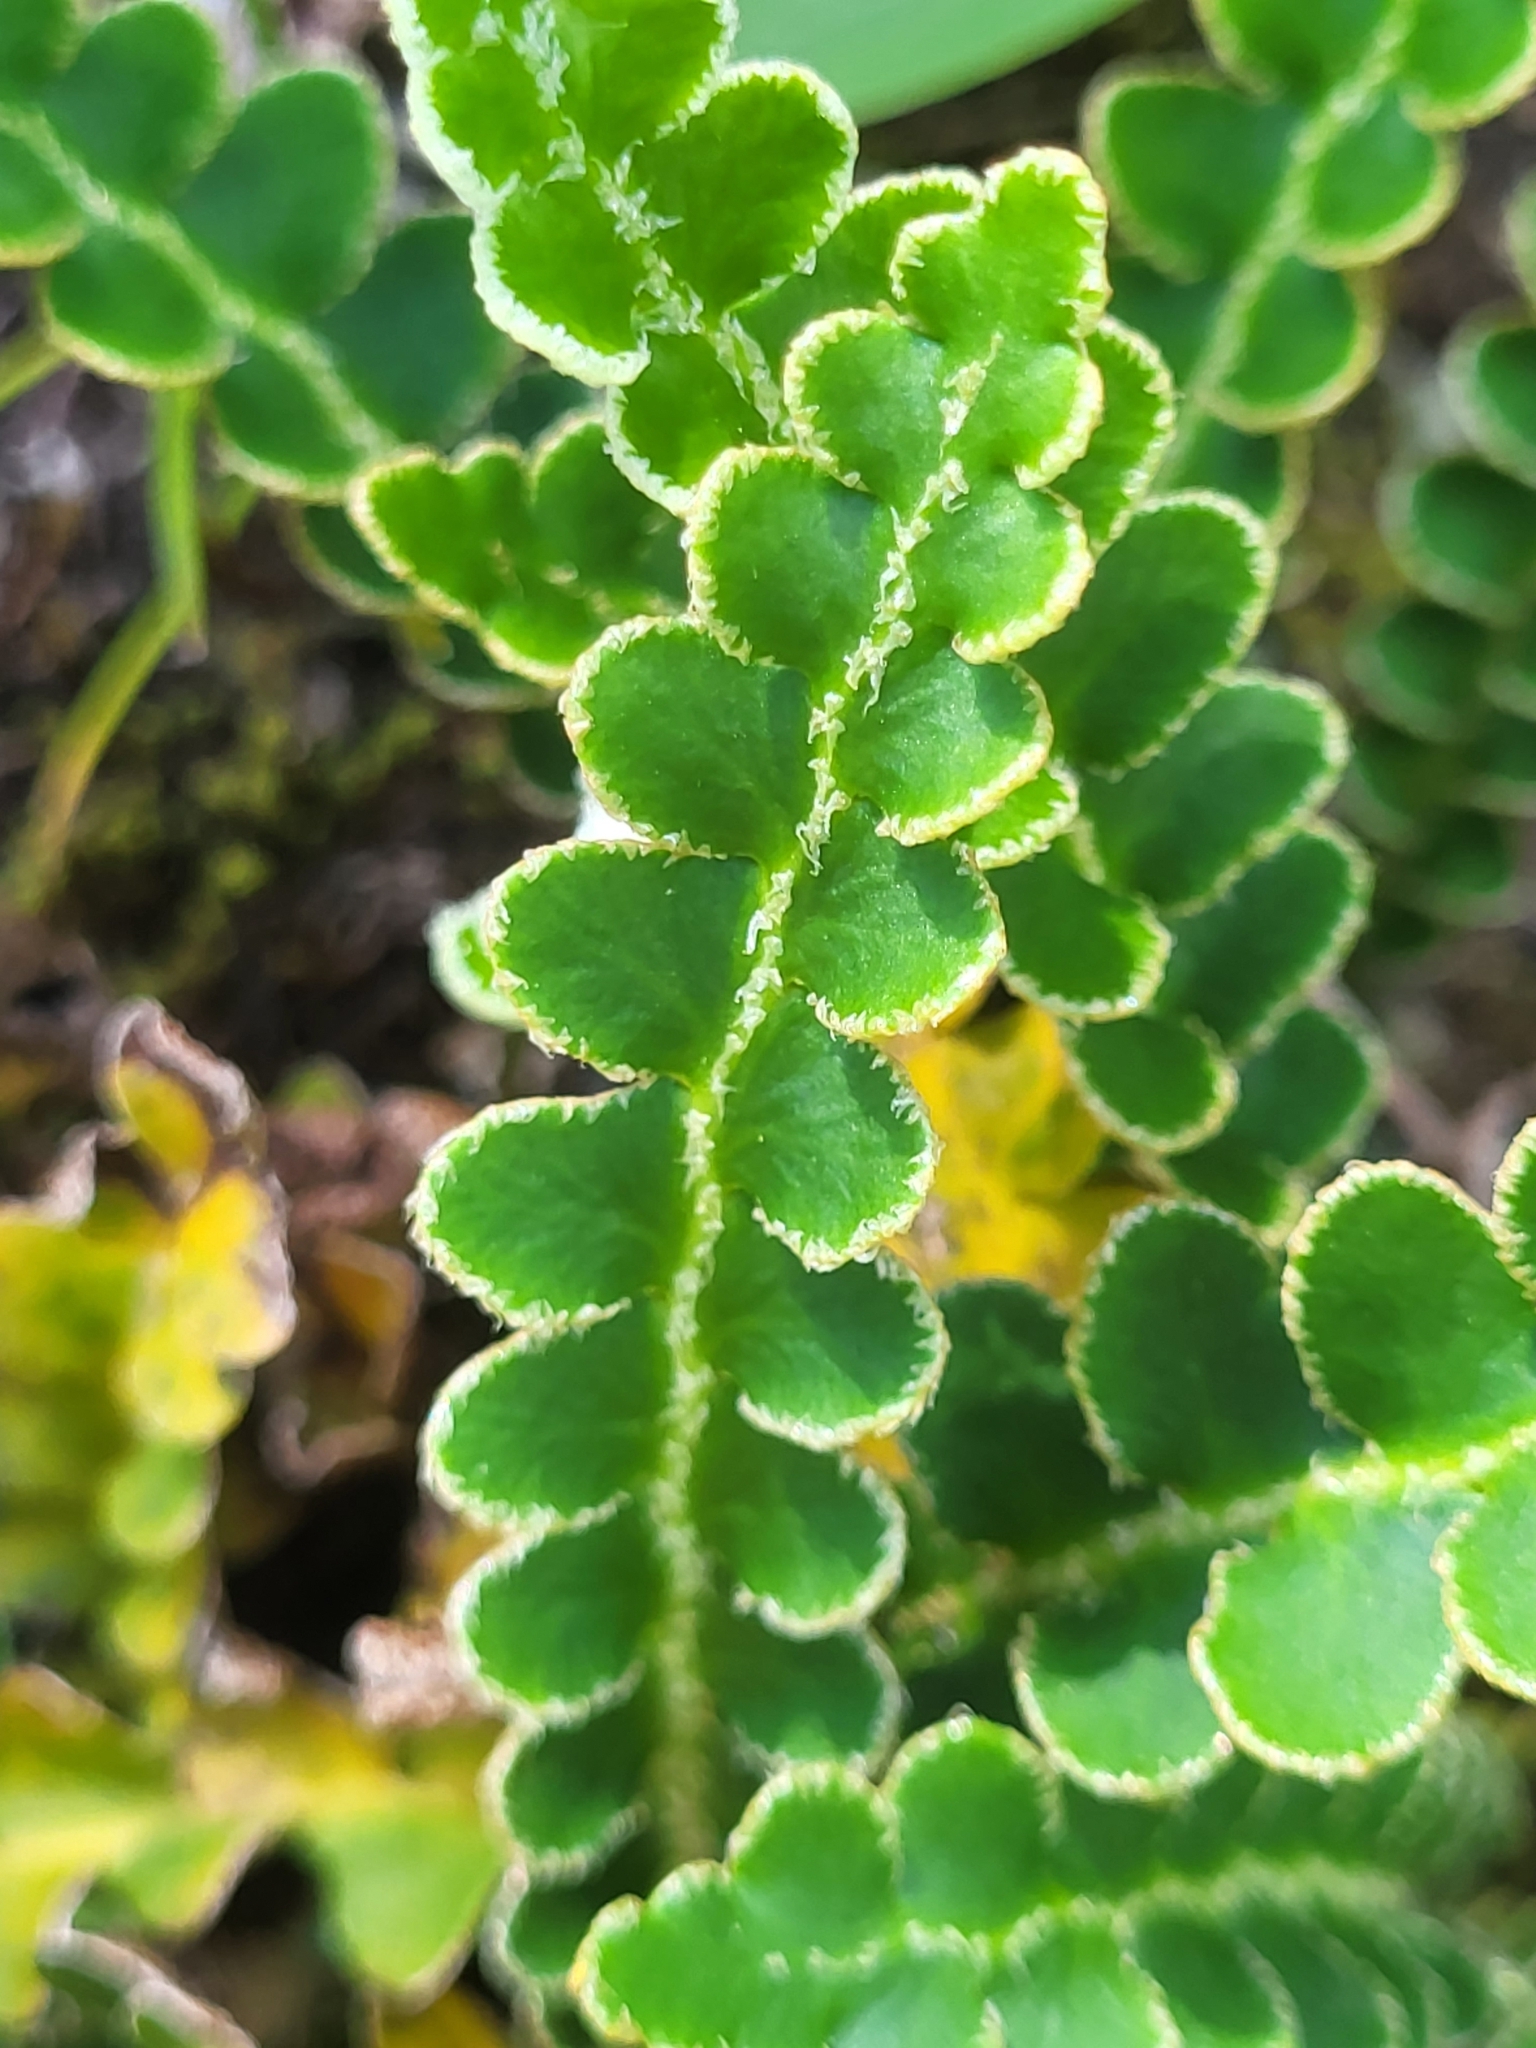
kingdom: Plantae
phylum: Tracheophyta
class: Polypodiopsida
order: Polypodiales
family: Aspleniaceae
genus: Asplenium
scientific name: Asplenium ceterach
